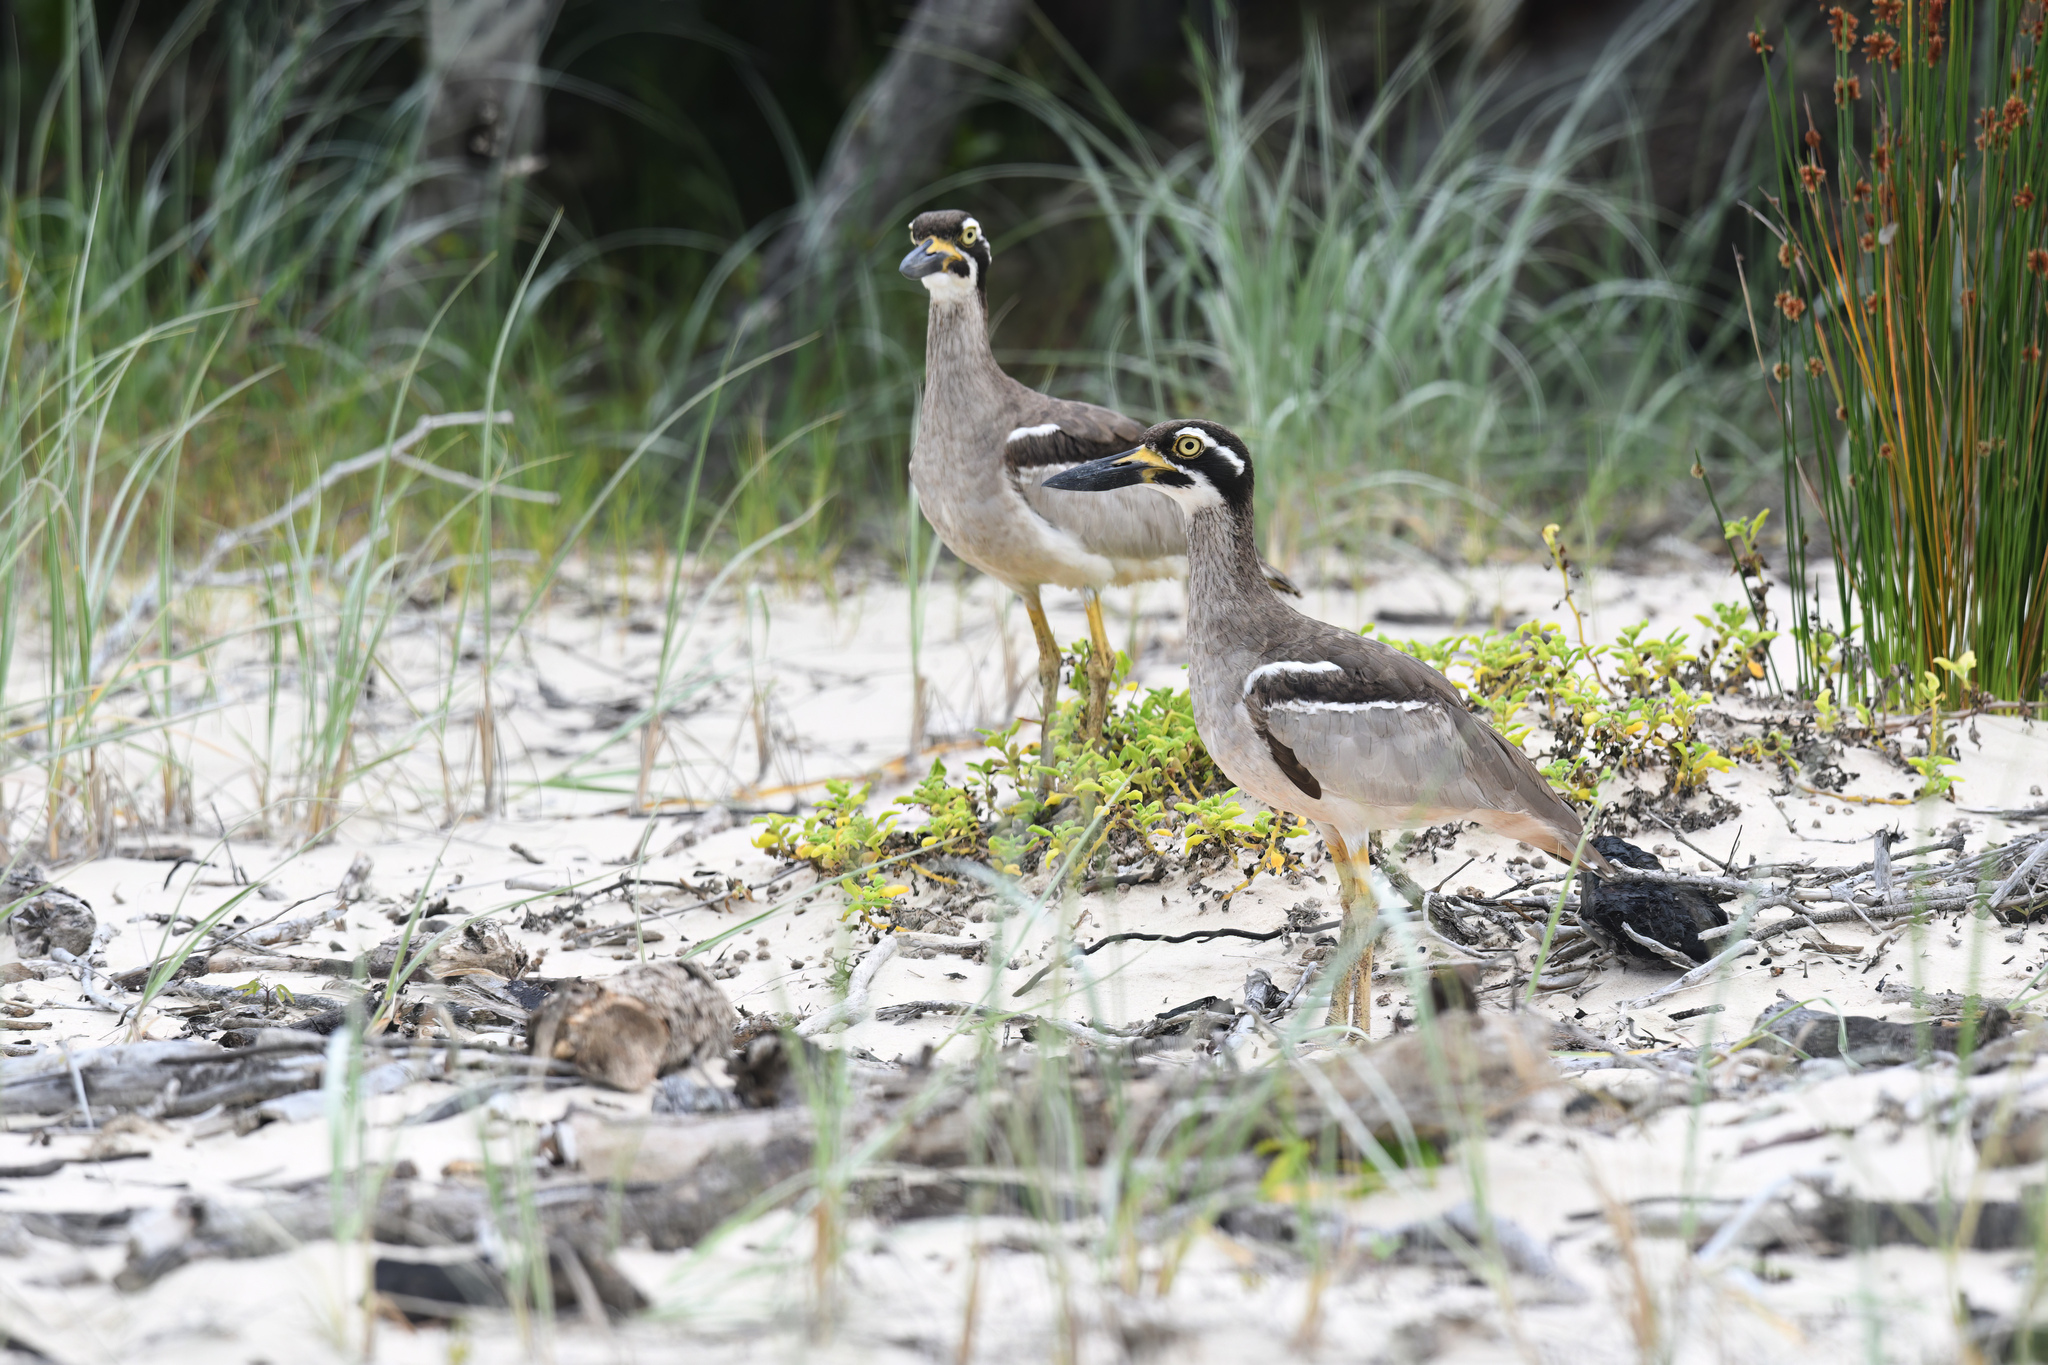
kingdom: Animalia
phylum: Chordata
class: Aves
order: Charadriiformes
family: Burhinidae
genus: Esacus
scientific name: Esacus magnirostris
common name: Beach stone-curlew
